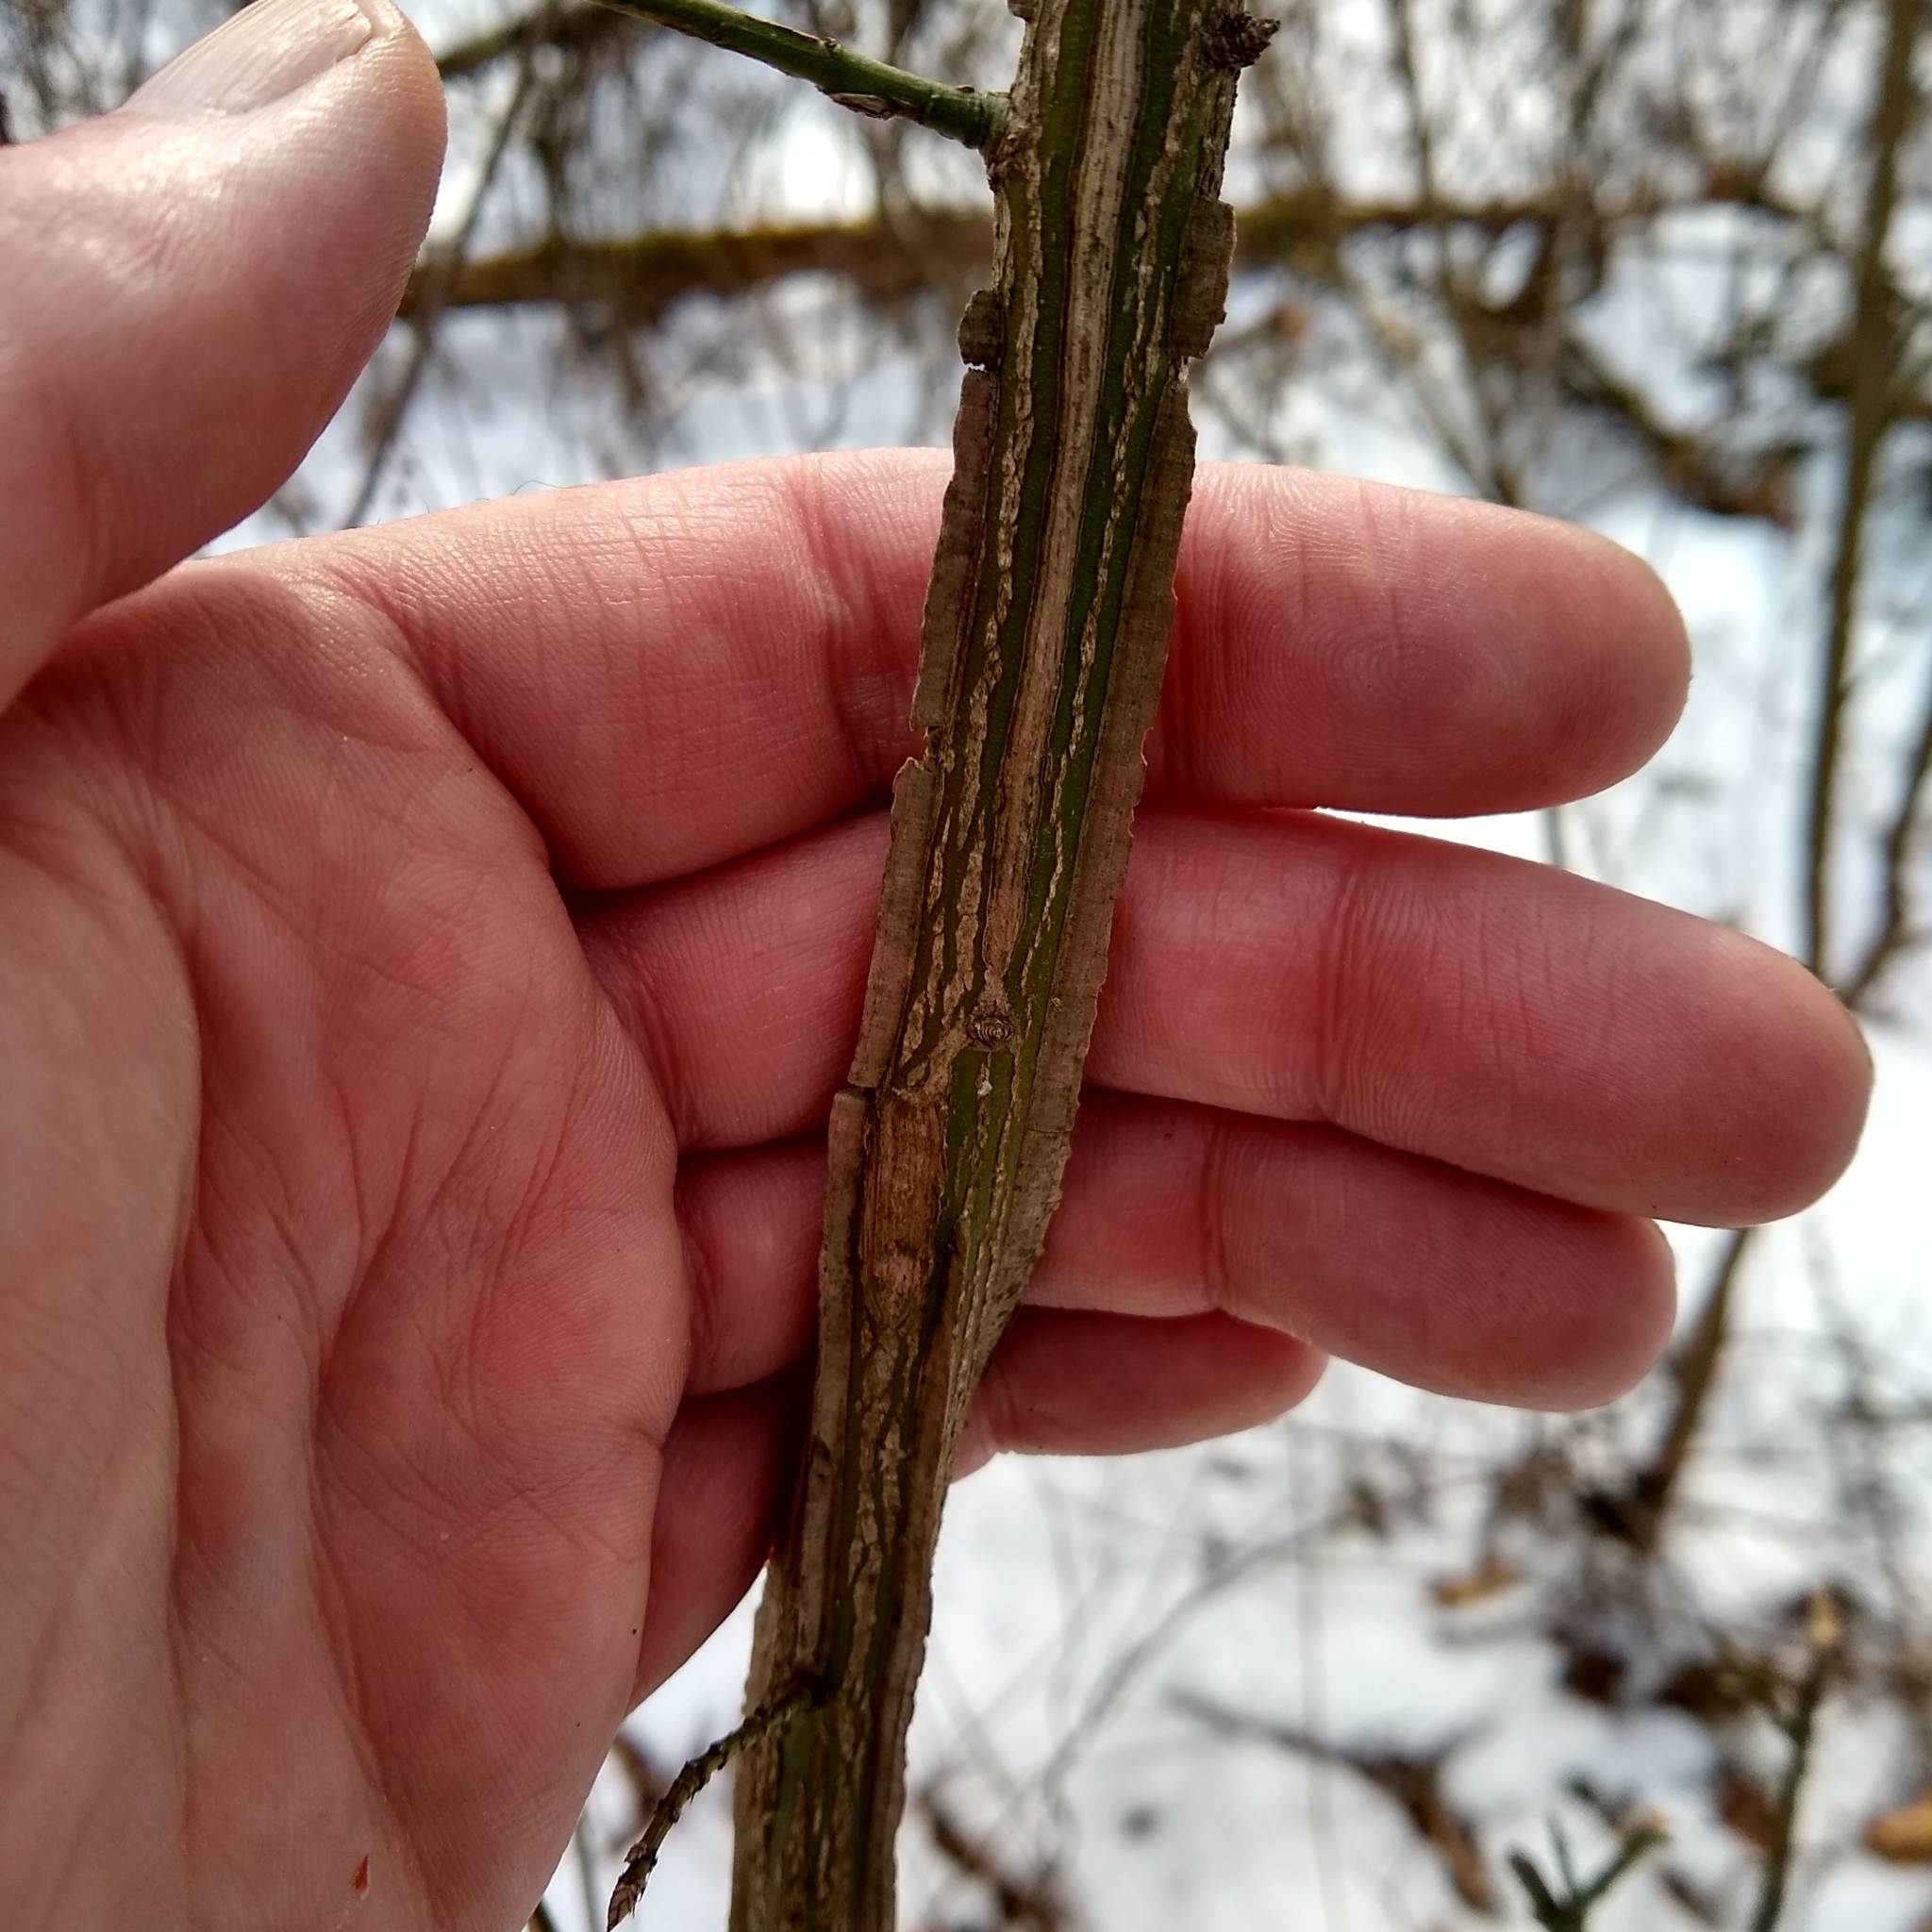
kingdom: Plantae
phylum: Tracheophyta
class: Magnoliopsida
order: Celastrales
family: Celastraceae
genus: Euonymus
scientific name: Euonymus alatus
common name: Winged euonymus
